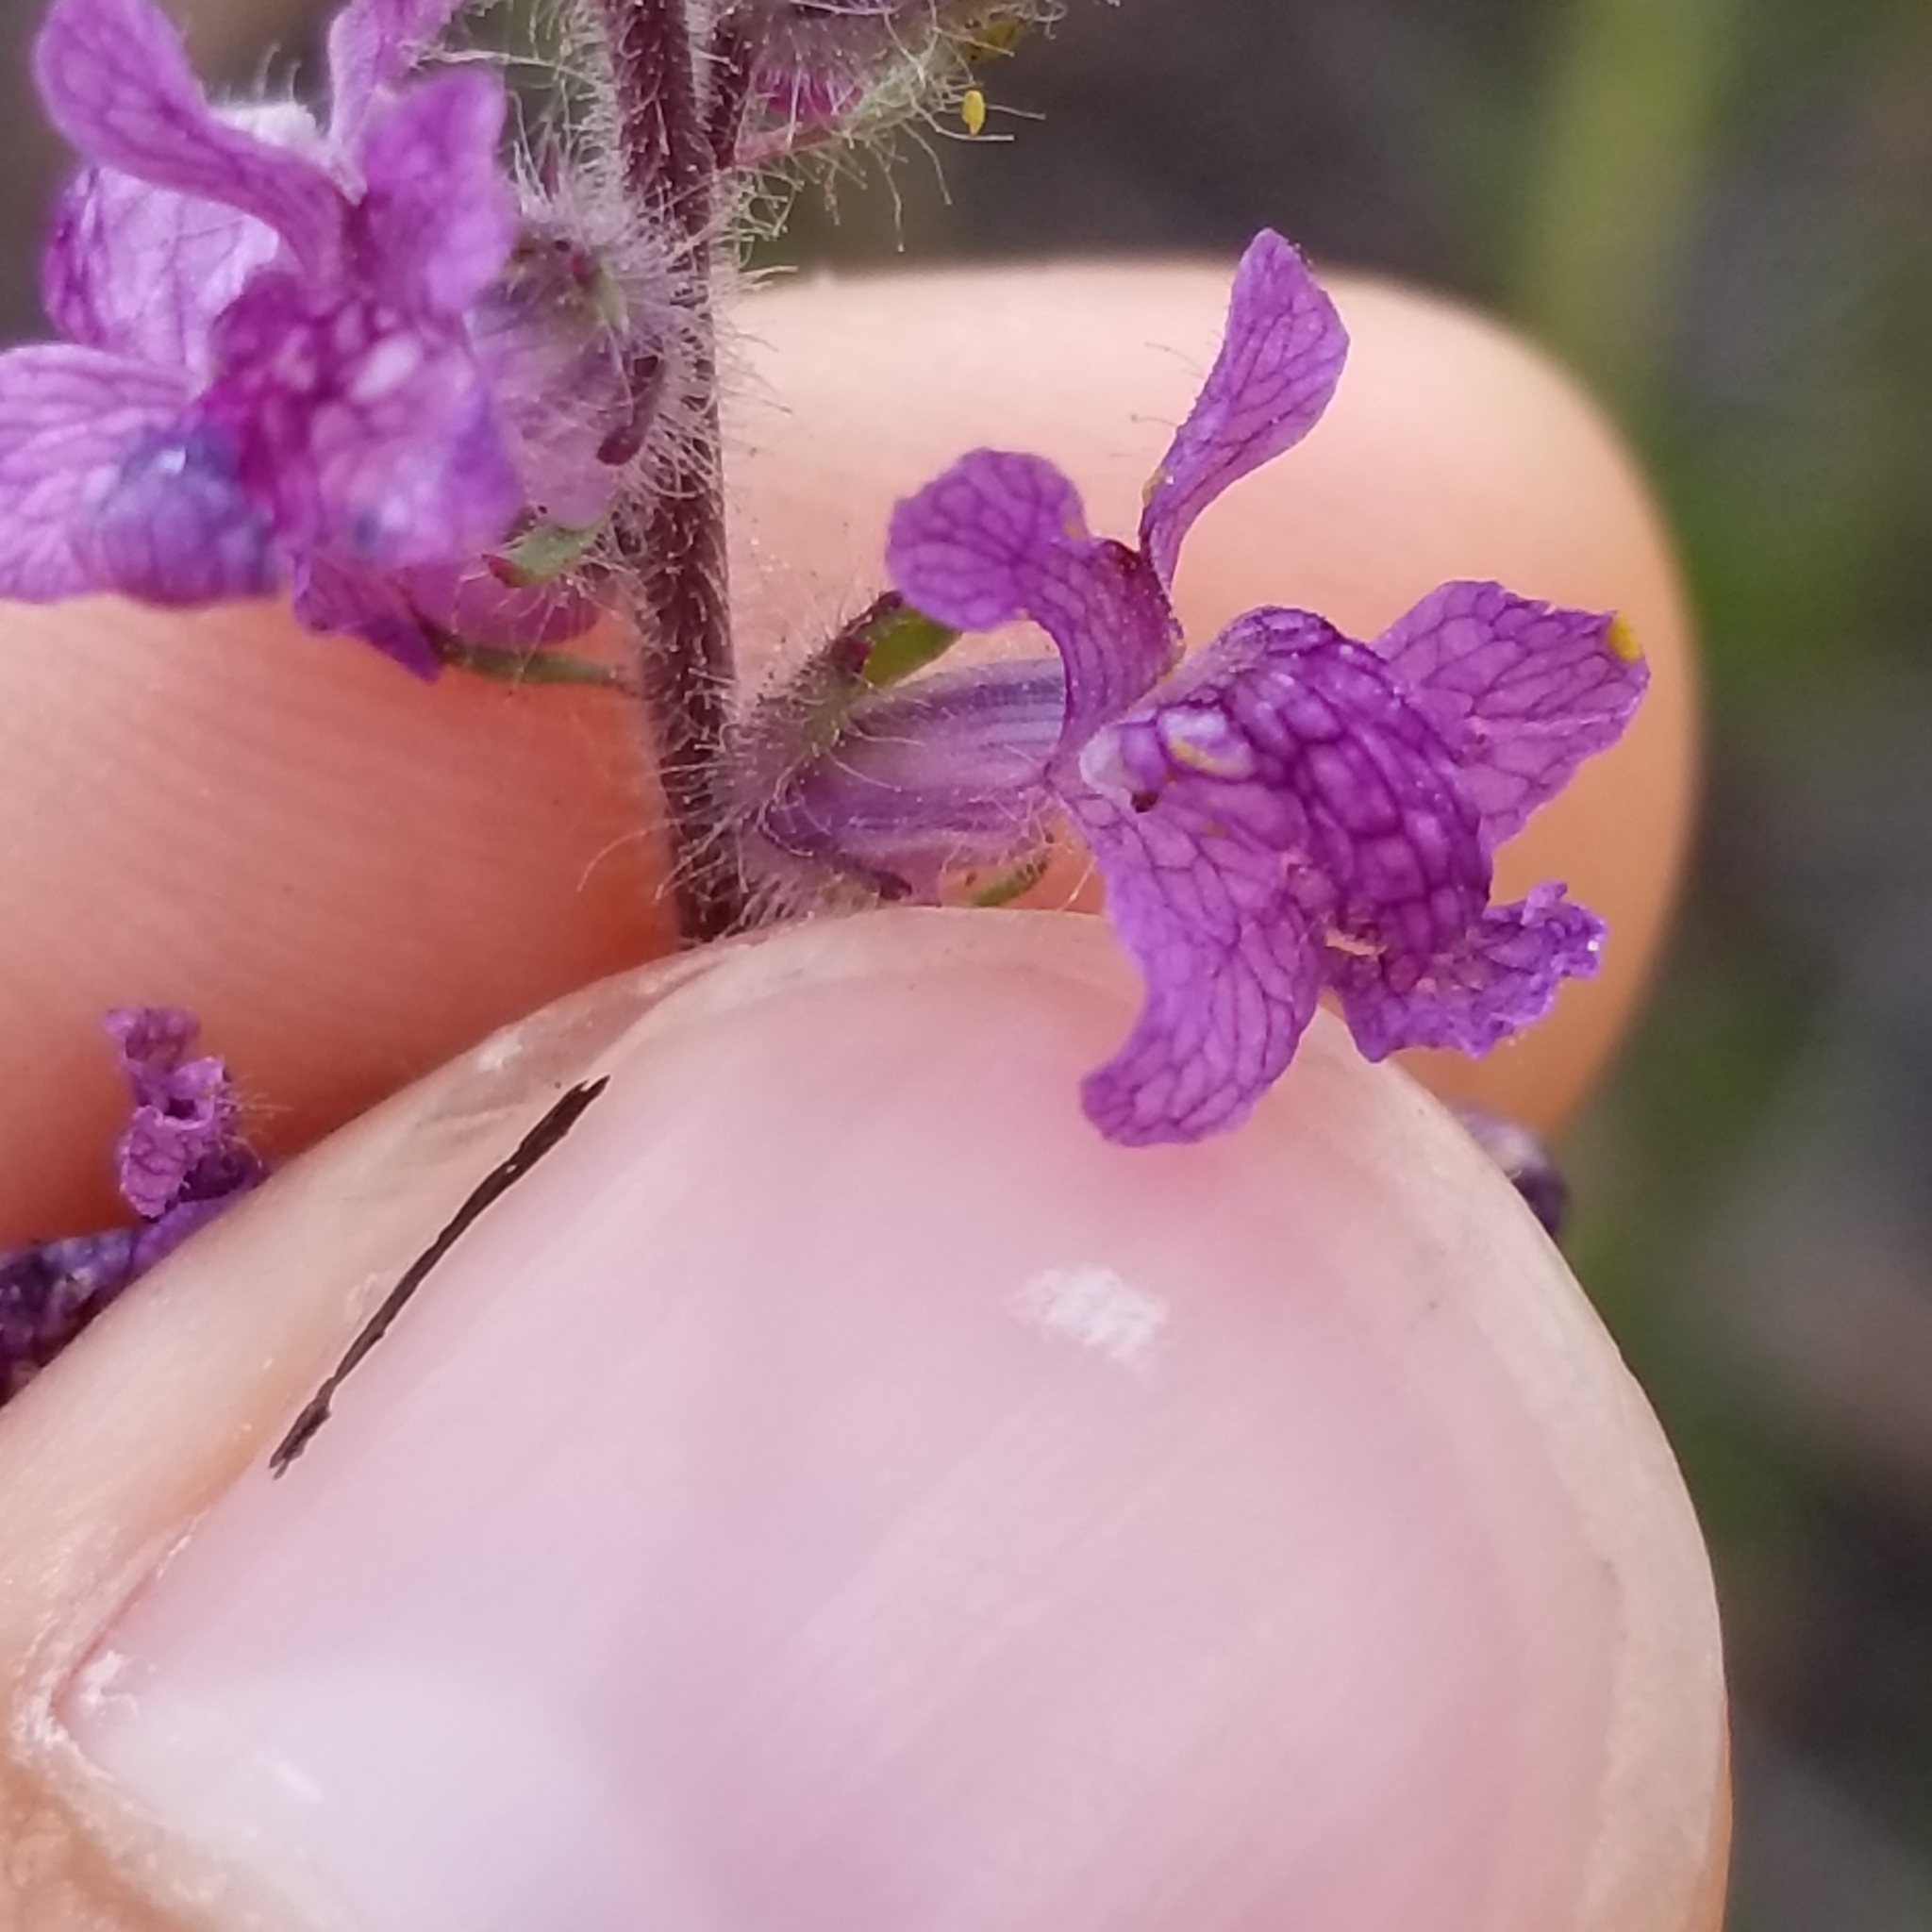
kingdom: Plantae
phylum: Tracheophyta
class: Magnoliopsida
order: Lamiales
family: Plantaginaceae
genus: Sairocarpus
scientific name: Sairocarpus coulterianus
